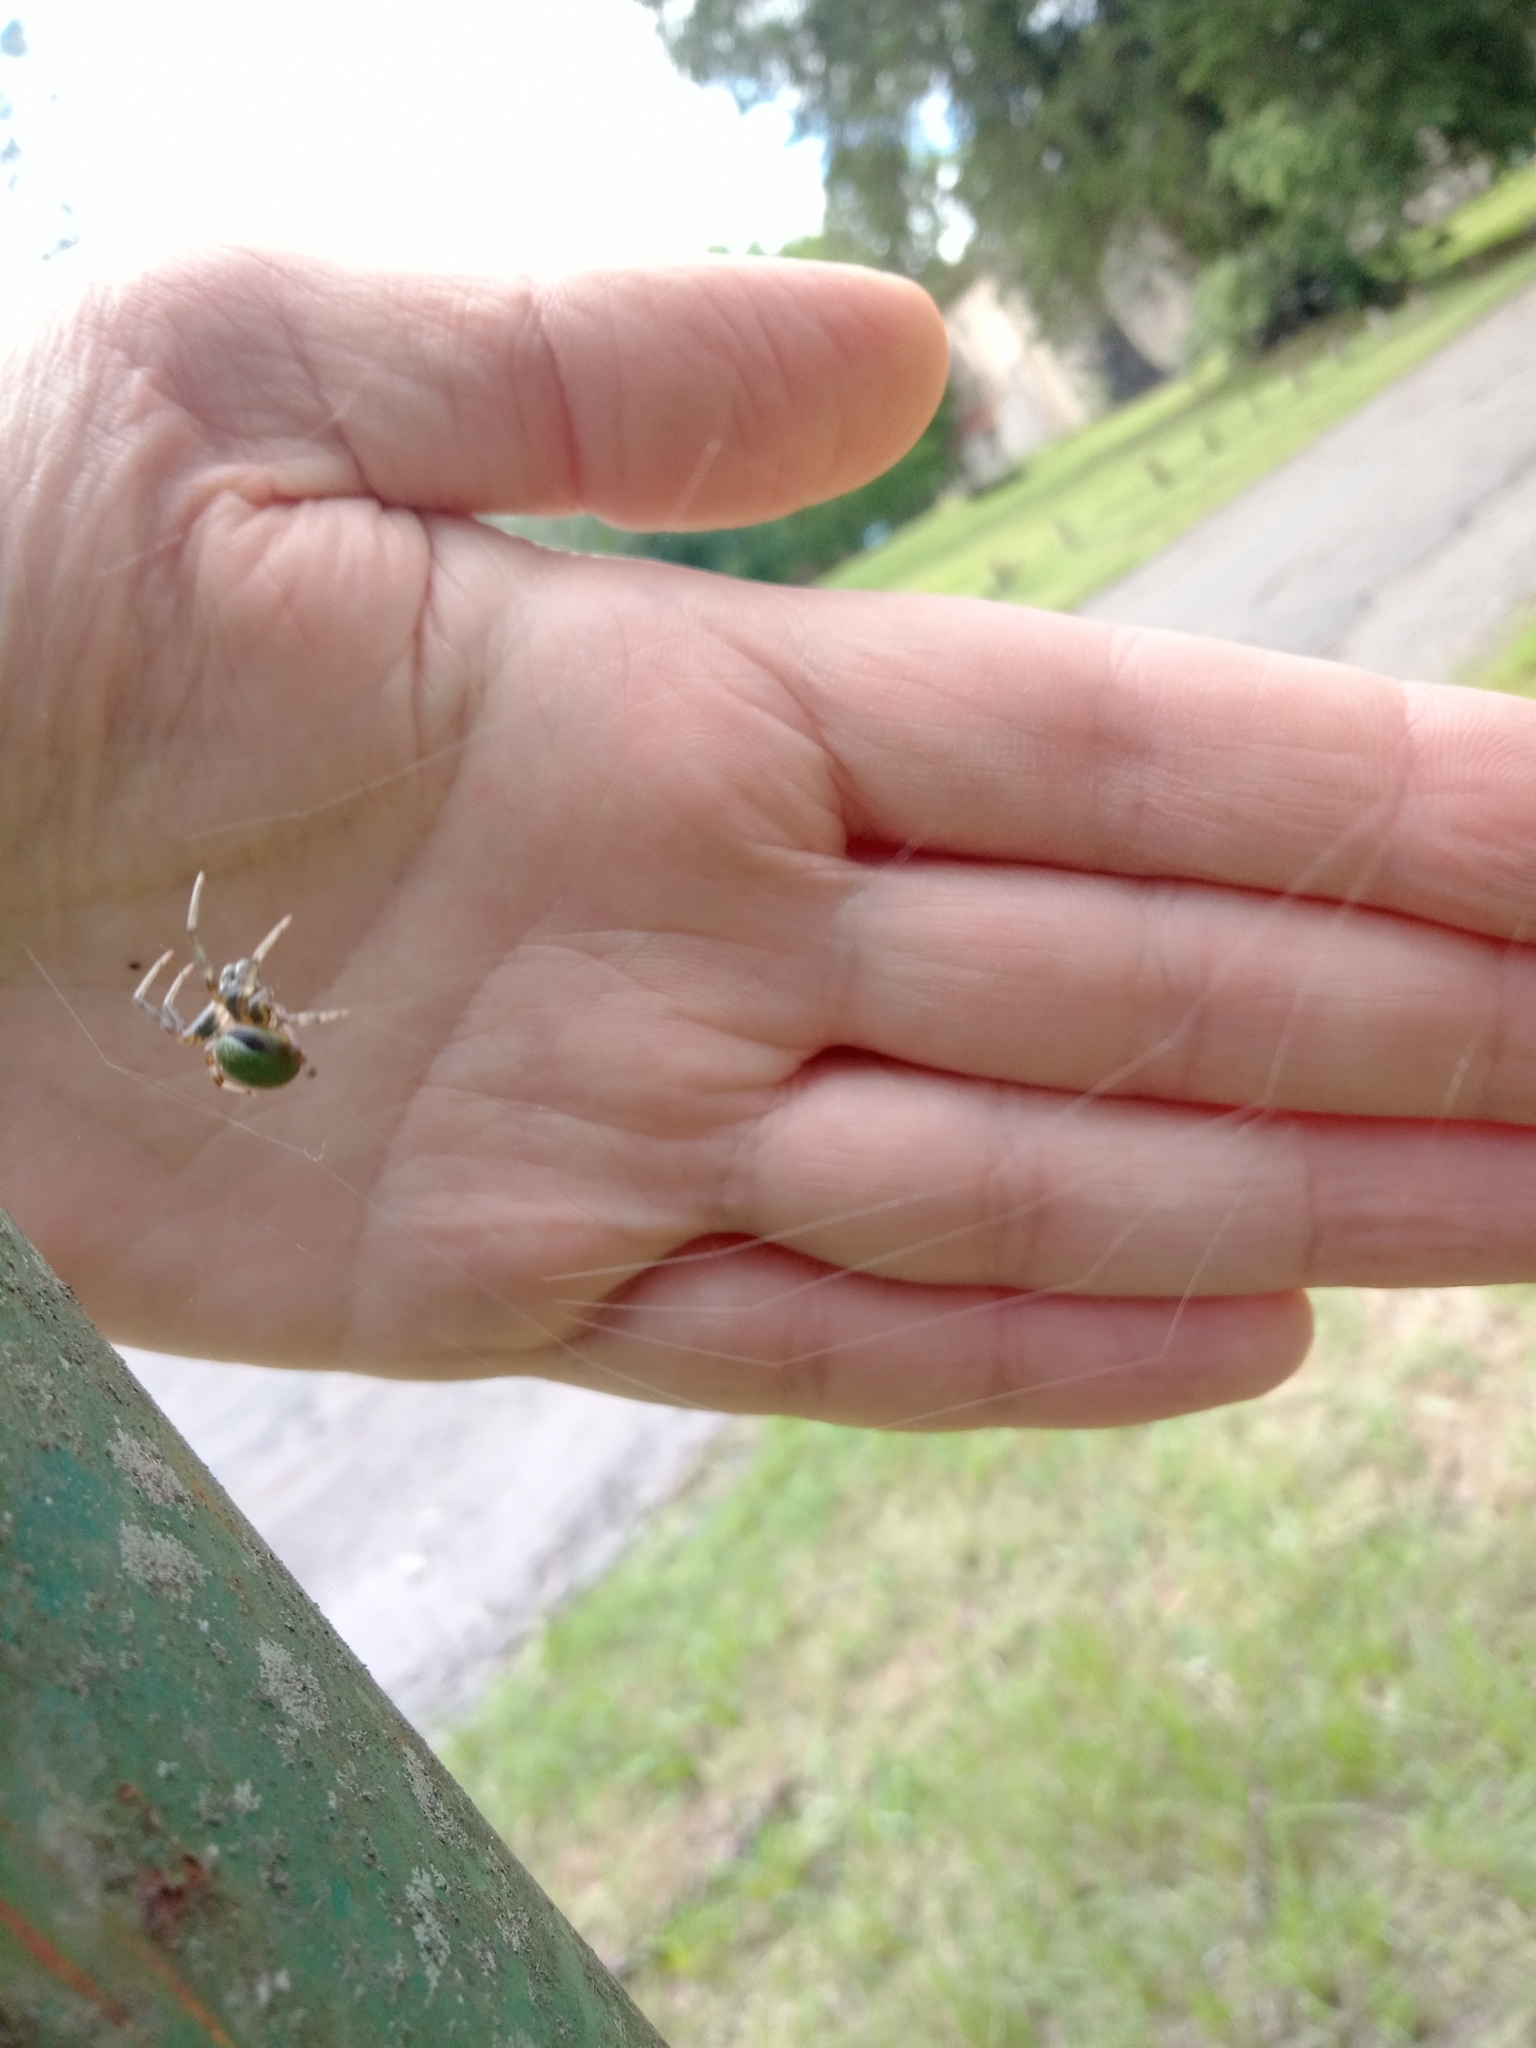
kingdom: Animalia
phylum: Arthropoda
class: Arachnida
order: Araneae
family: Araneidae
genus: Araneus
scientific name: Araneus lathyrinus
